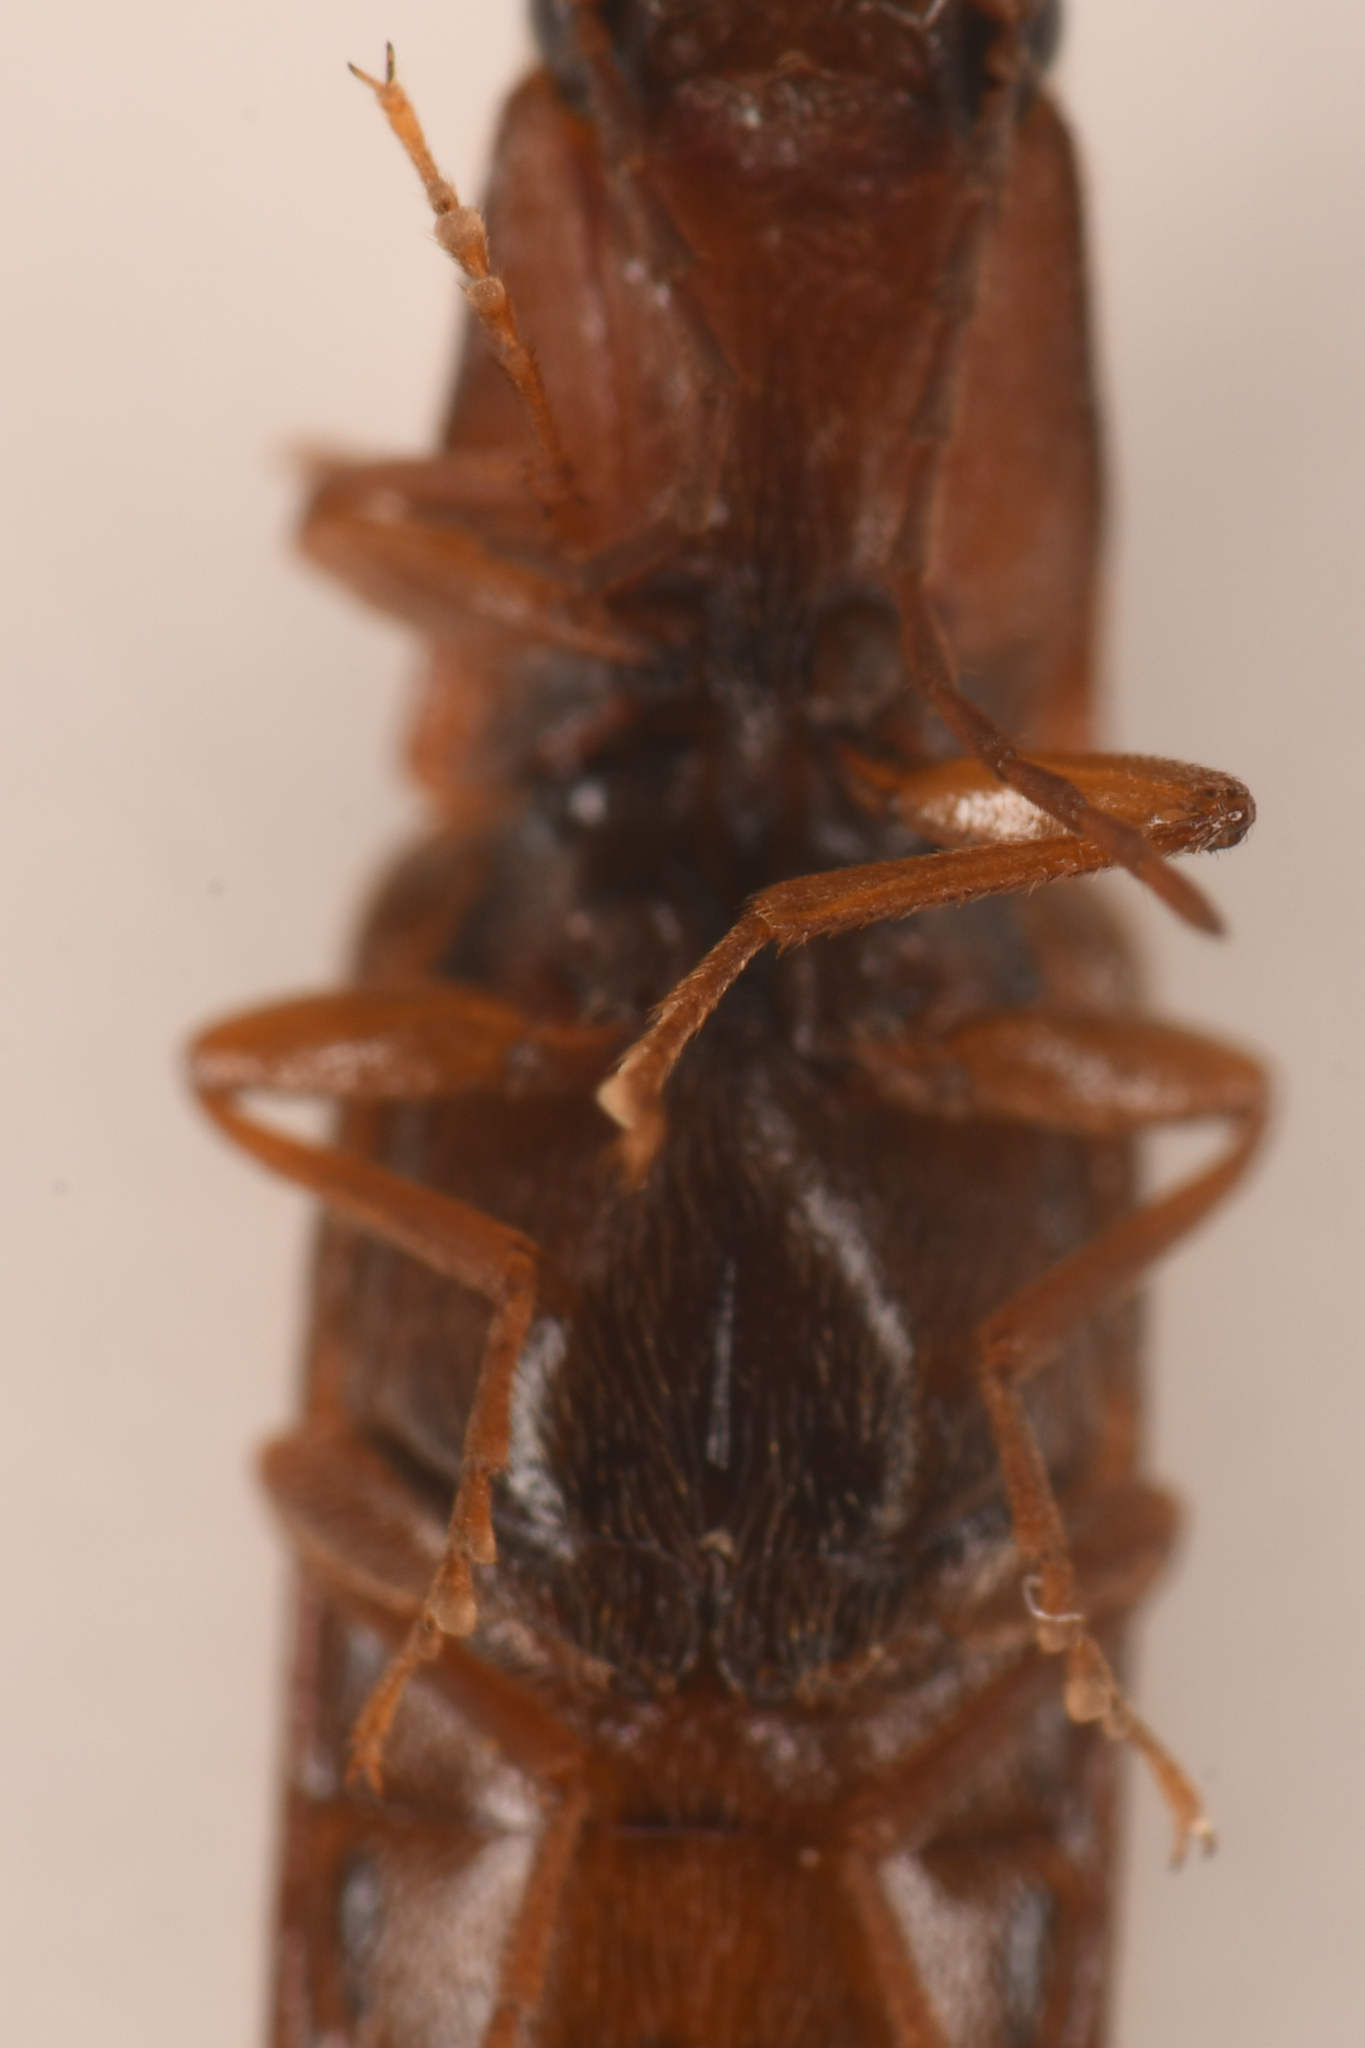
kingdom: Animalia
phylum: Arthropoda
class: Insecta
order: Coleoptera
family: Elateridae
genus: Athous
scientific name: Athous rufiventris
